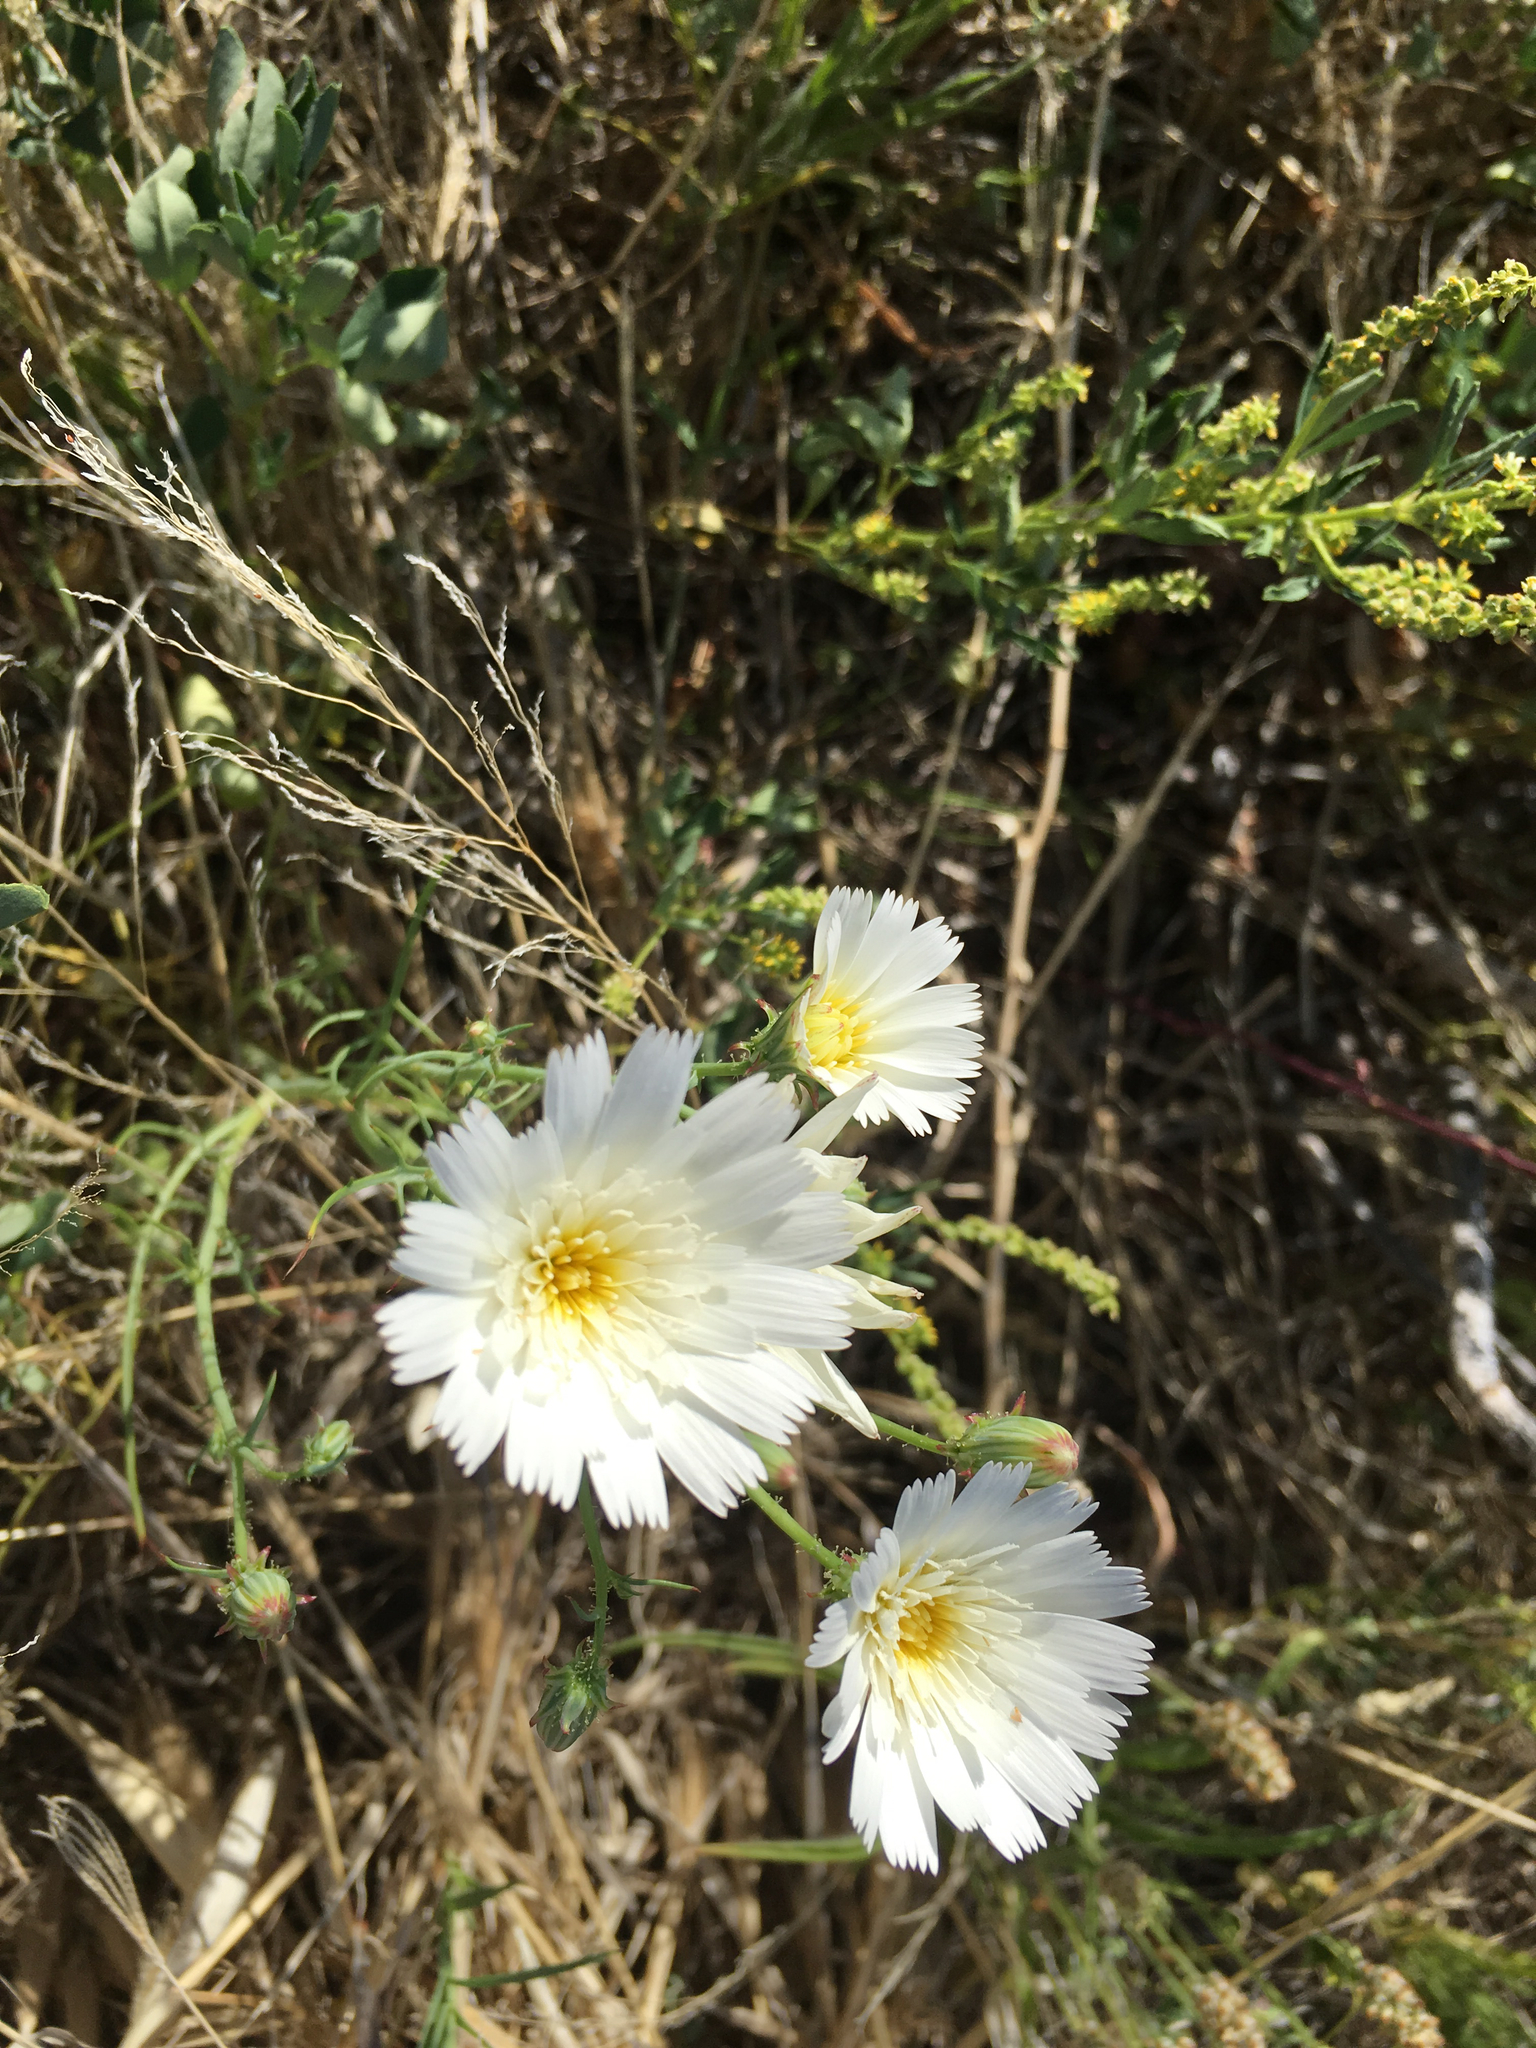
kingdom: Plantae
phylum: Tracheophyta
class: Magnoliopsida
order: Asterales
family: Asteraceae
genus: Calycoseris
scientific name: Calycoseris wrightii
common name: White tackstem
